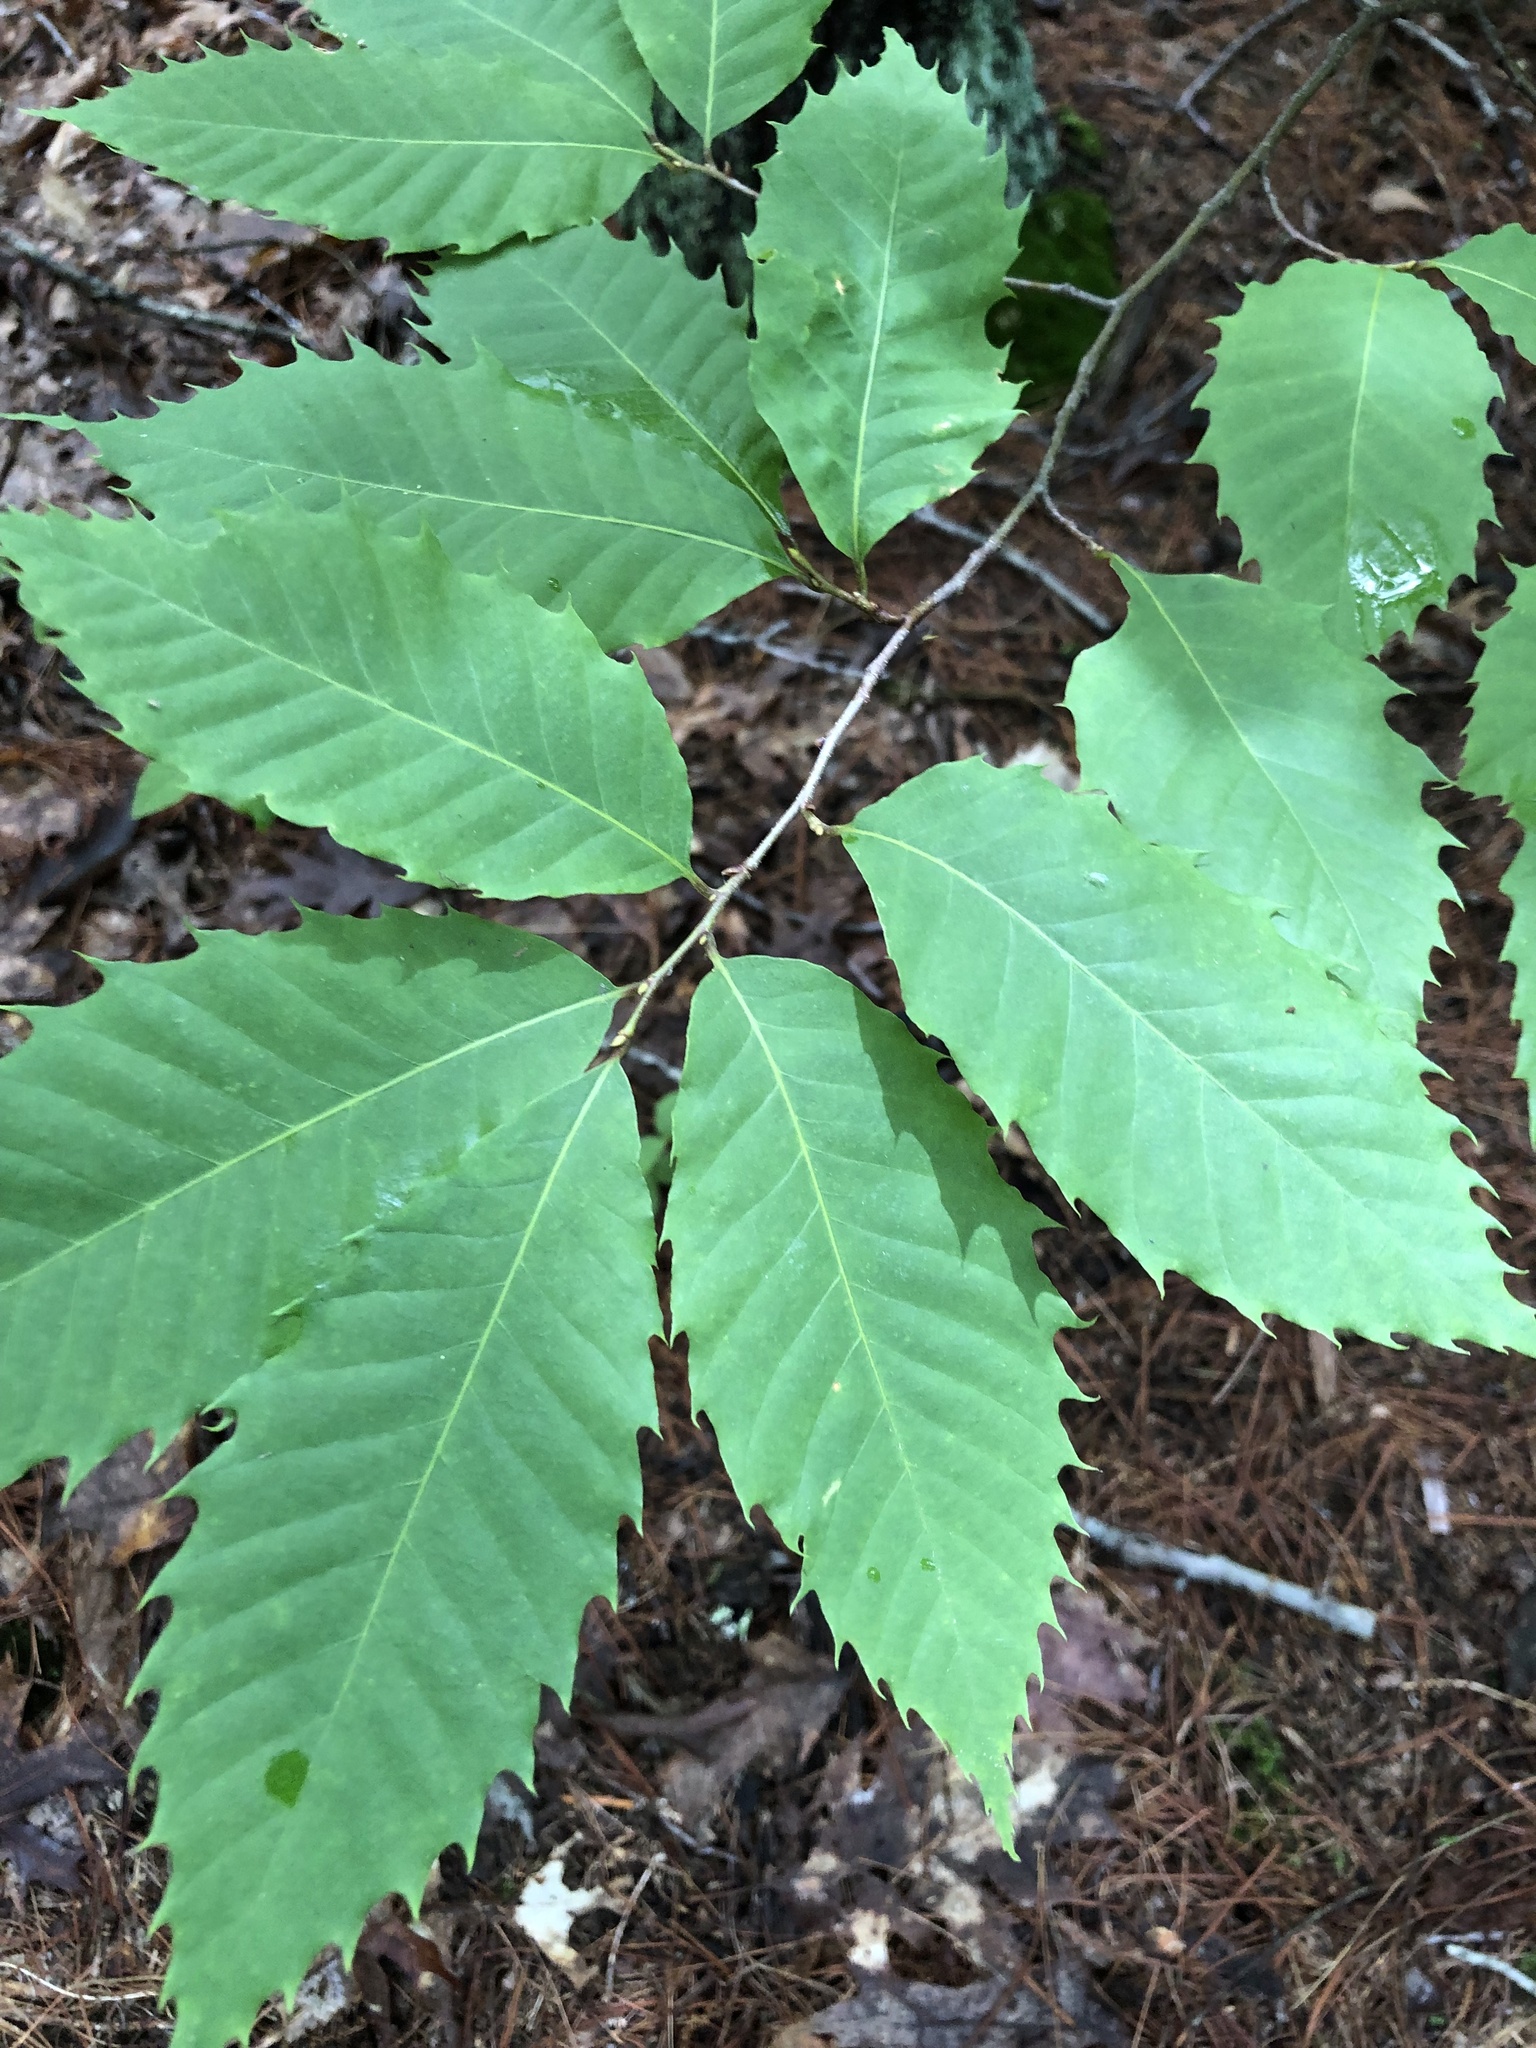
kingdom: Plantae
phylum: Tracheophyta
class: Magnoliopsida
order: Fagales
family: Fagaceae
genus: Castanea
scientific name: Castanea dentata
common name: American chestnut
